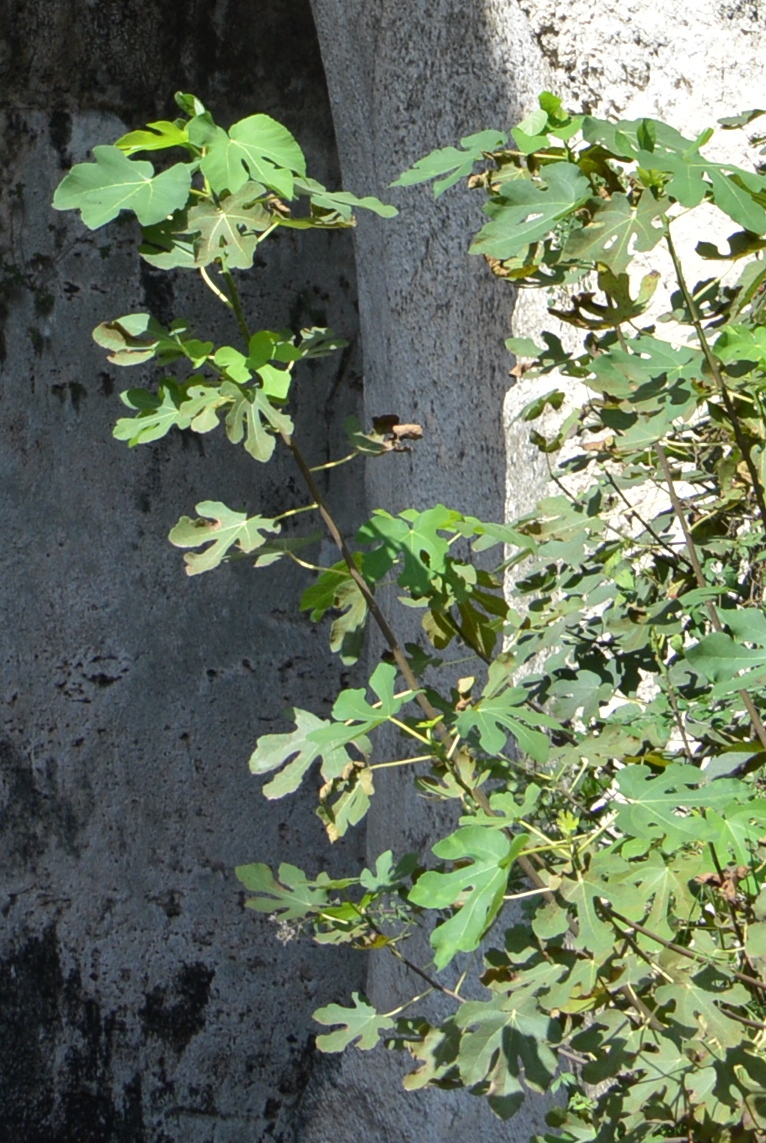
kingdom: Plantae
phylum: Tracheophyta
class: Magnoliopsida
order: Rosales
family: Moraceae
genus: Ficus
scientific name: Ficus carica
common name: Fig
